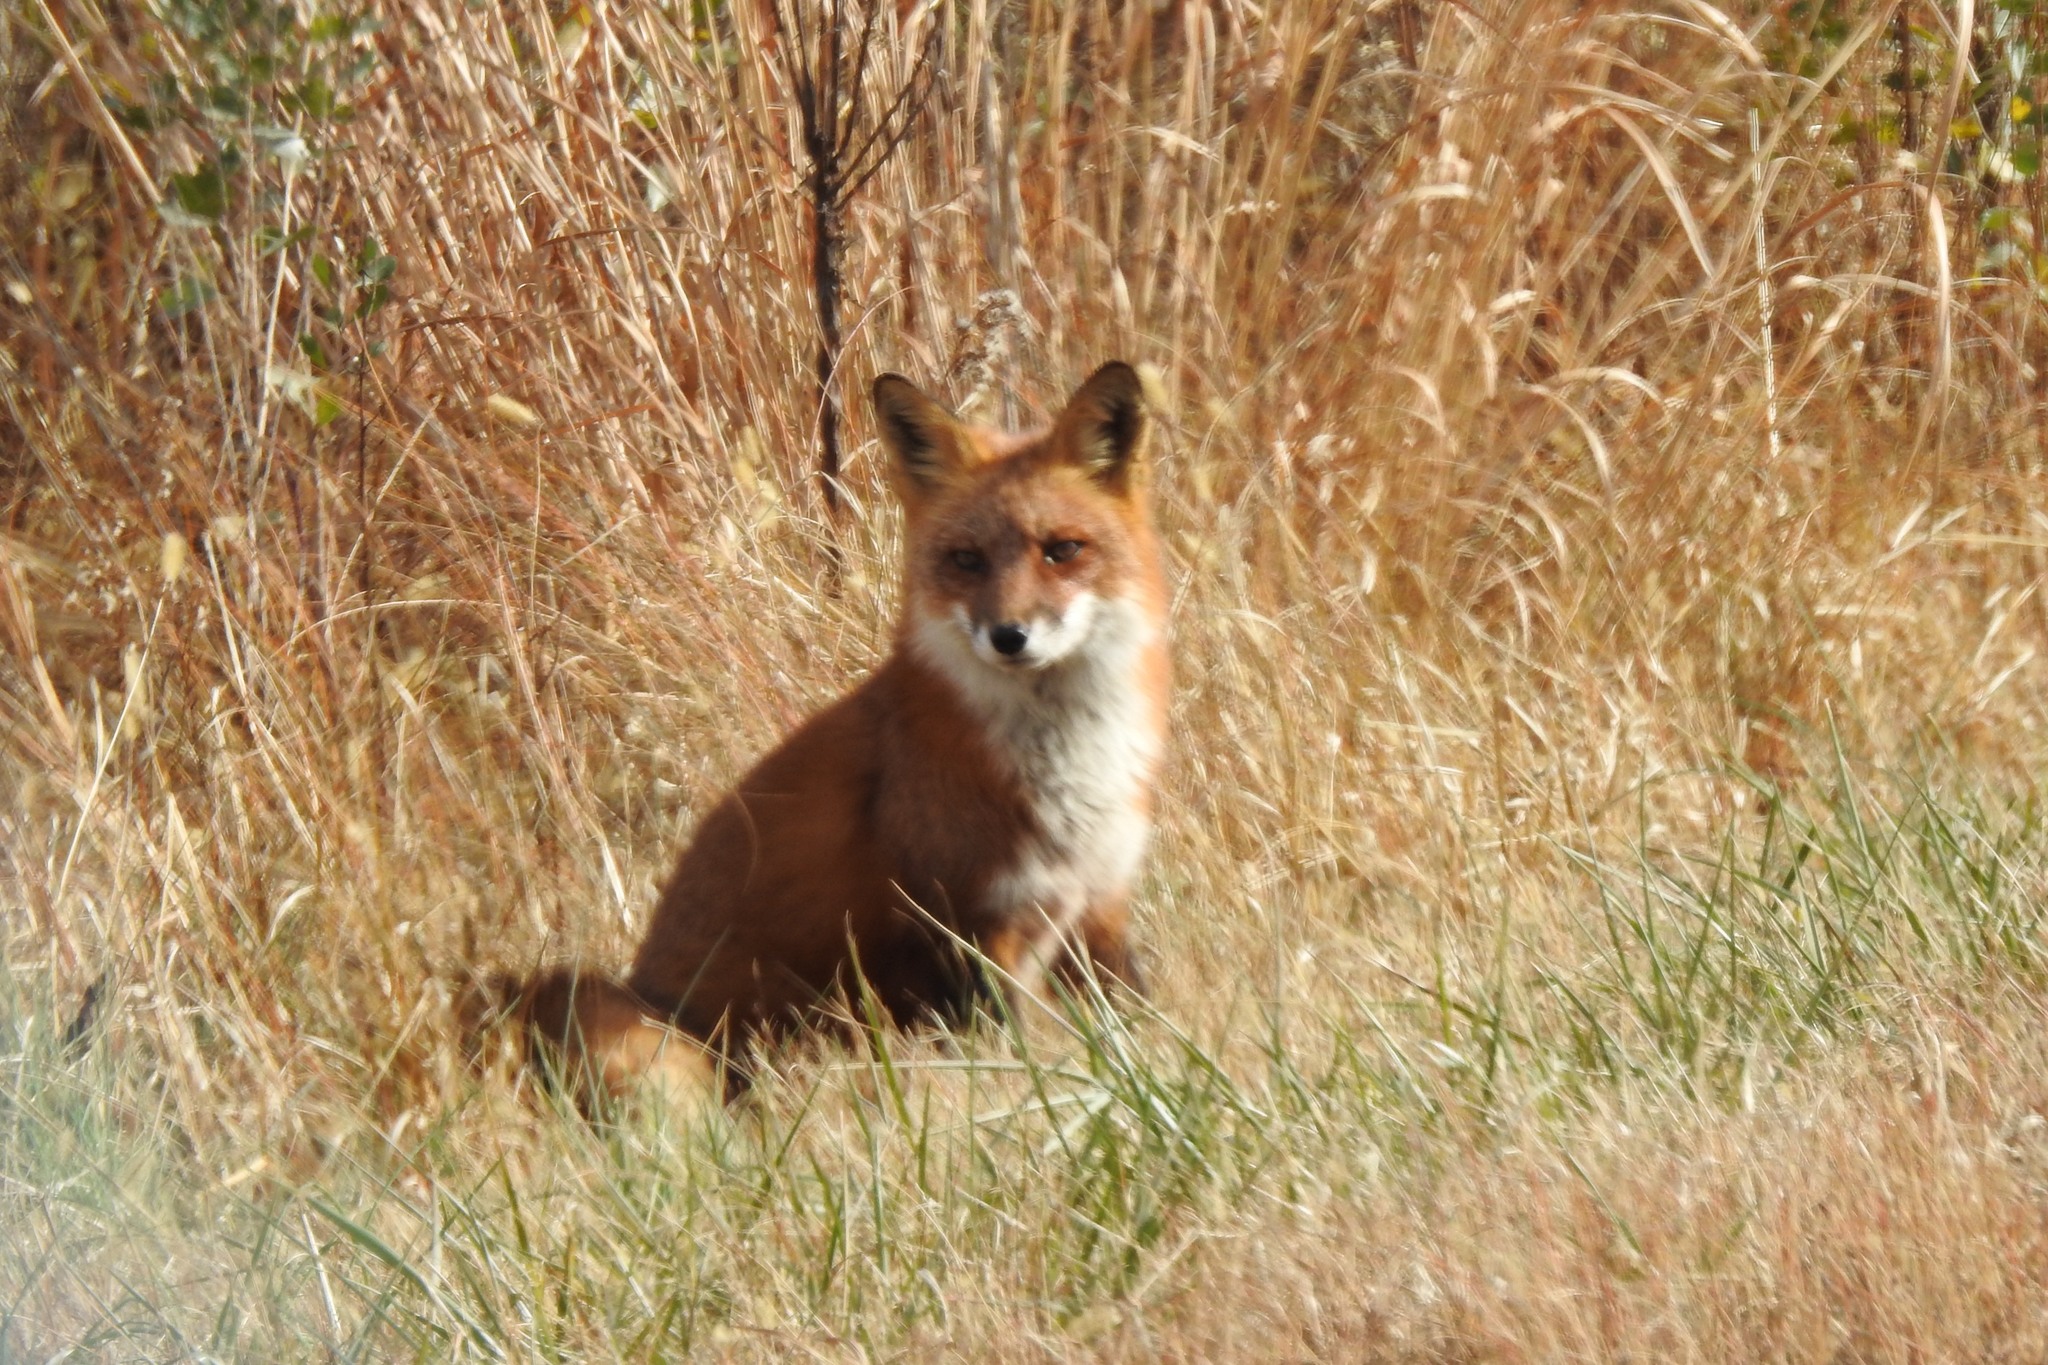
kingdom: Animalia
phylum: Chordata
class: Mammalia
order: Carnivora
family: Canidae
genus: Vulpes
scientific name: Vulpes vulpes
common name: Red fox
